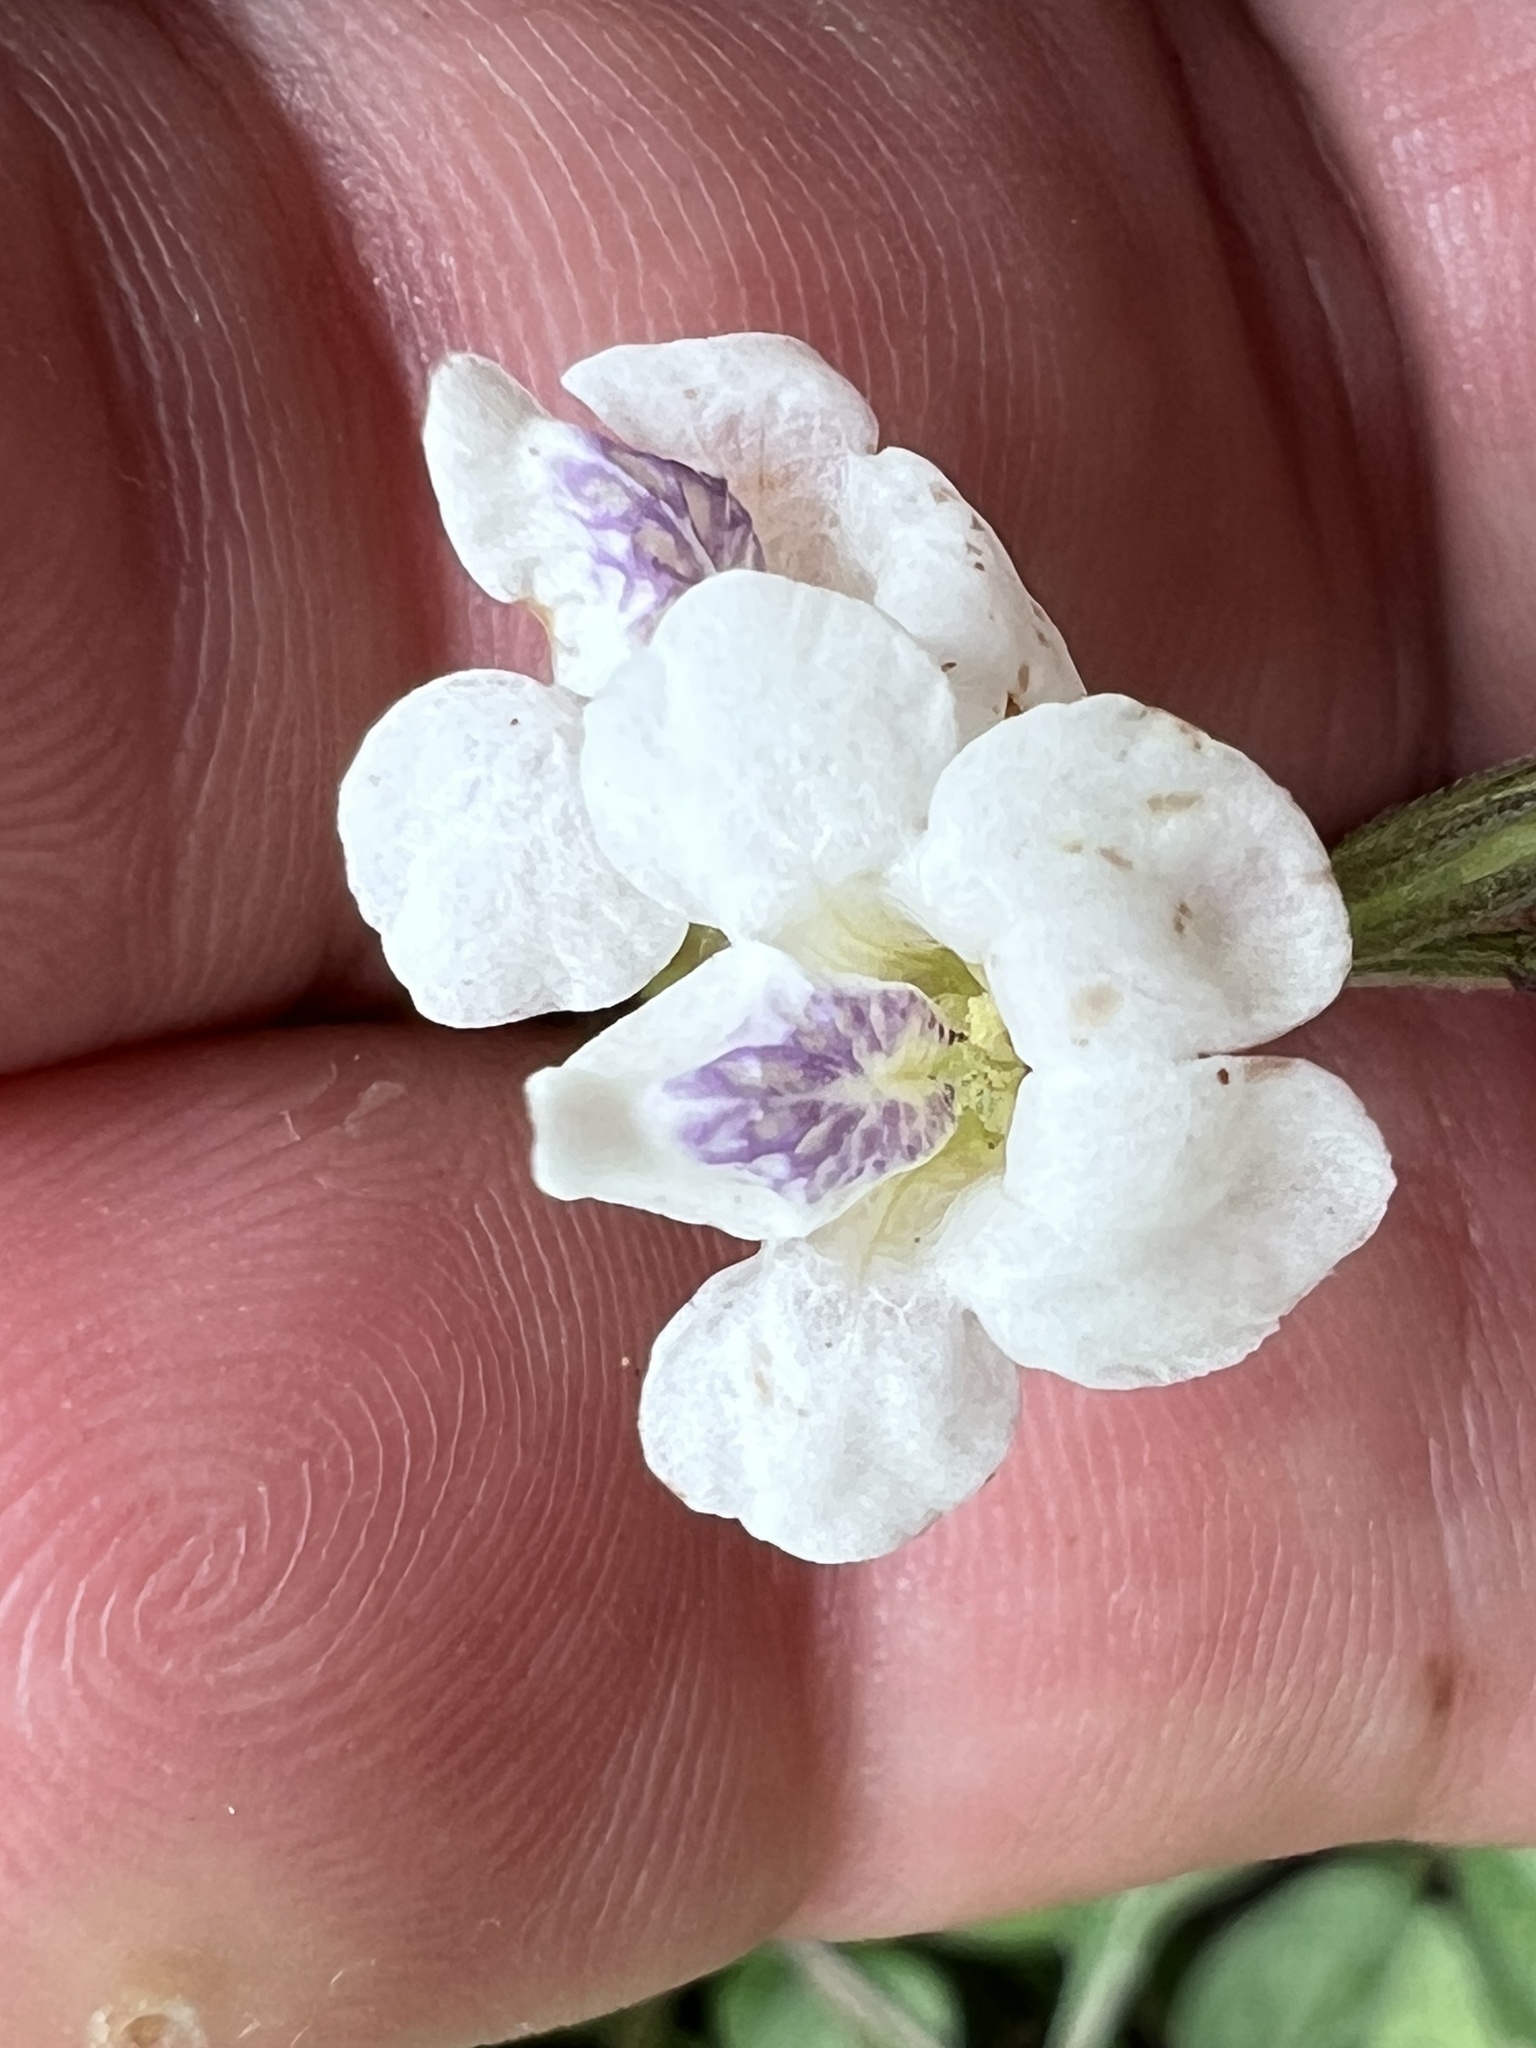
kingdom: Plantae
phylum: Tracheophyta
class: Magnoliopsida
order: Lamiales
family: Acanthaceae
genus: Asystasia
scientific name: Asystasia intrusa
